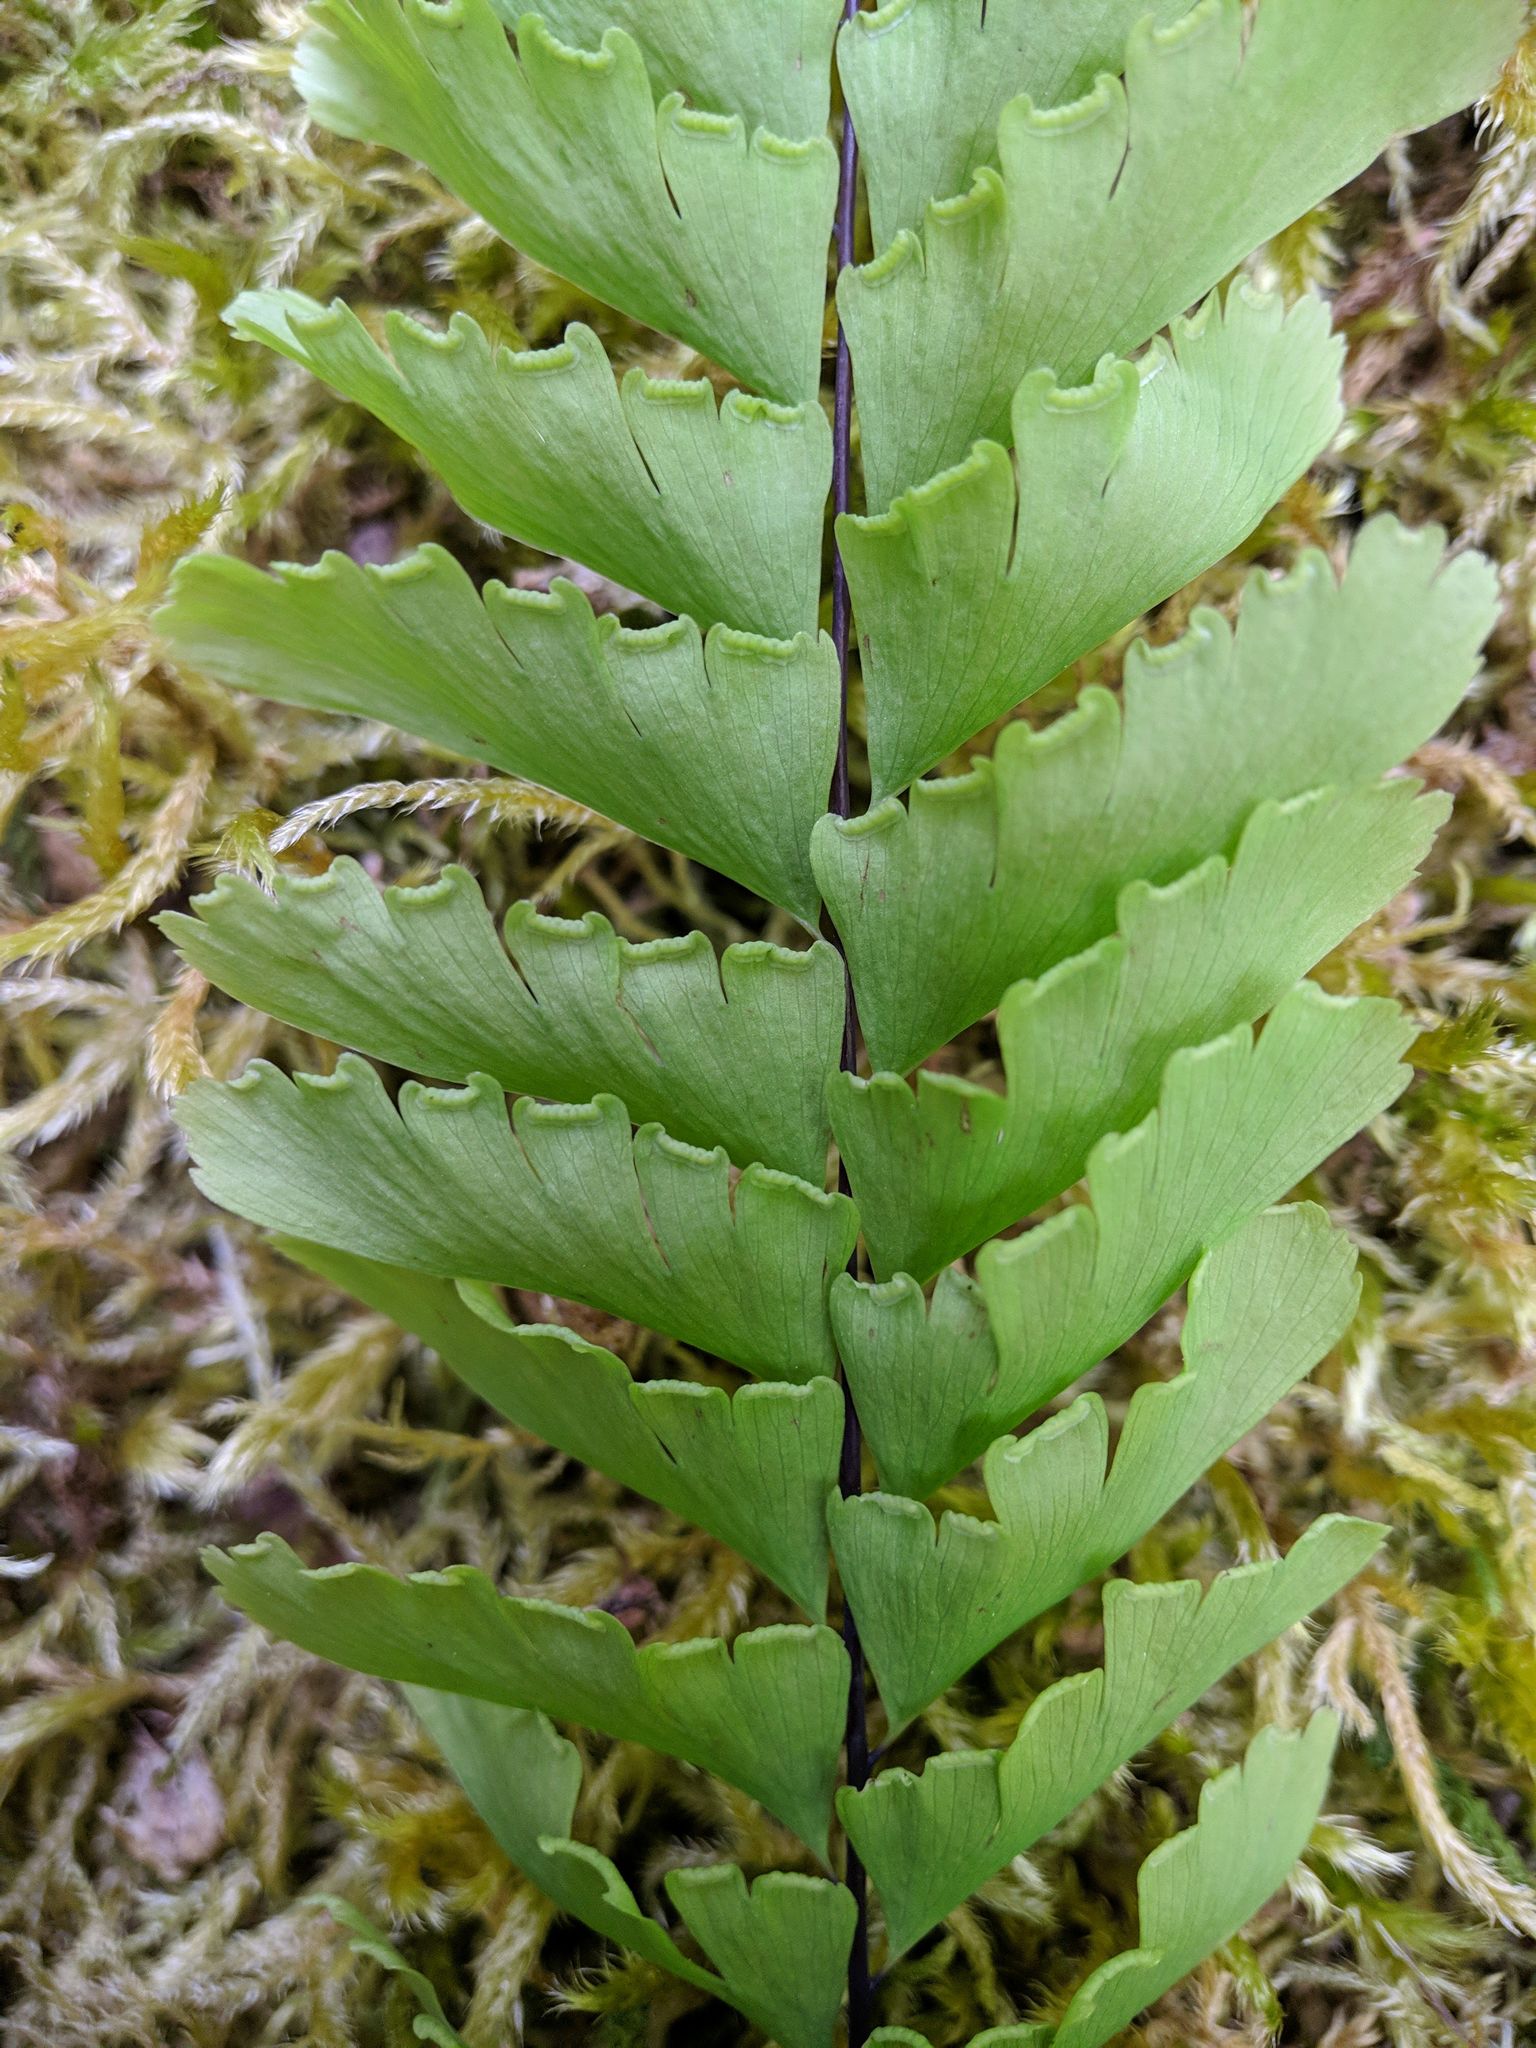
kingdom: Plantae
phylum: Tracheophyta
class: Polypodiopsida
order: Polypodiales
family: Pteridaceae
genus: Adiantum
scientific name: Adiantum aleuticum
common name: Aleutian maidenhair fern
